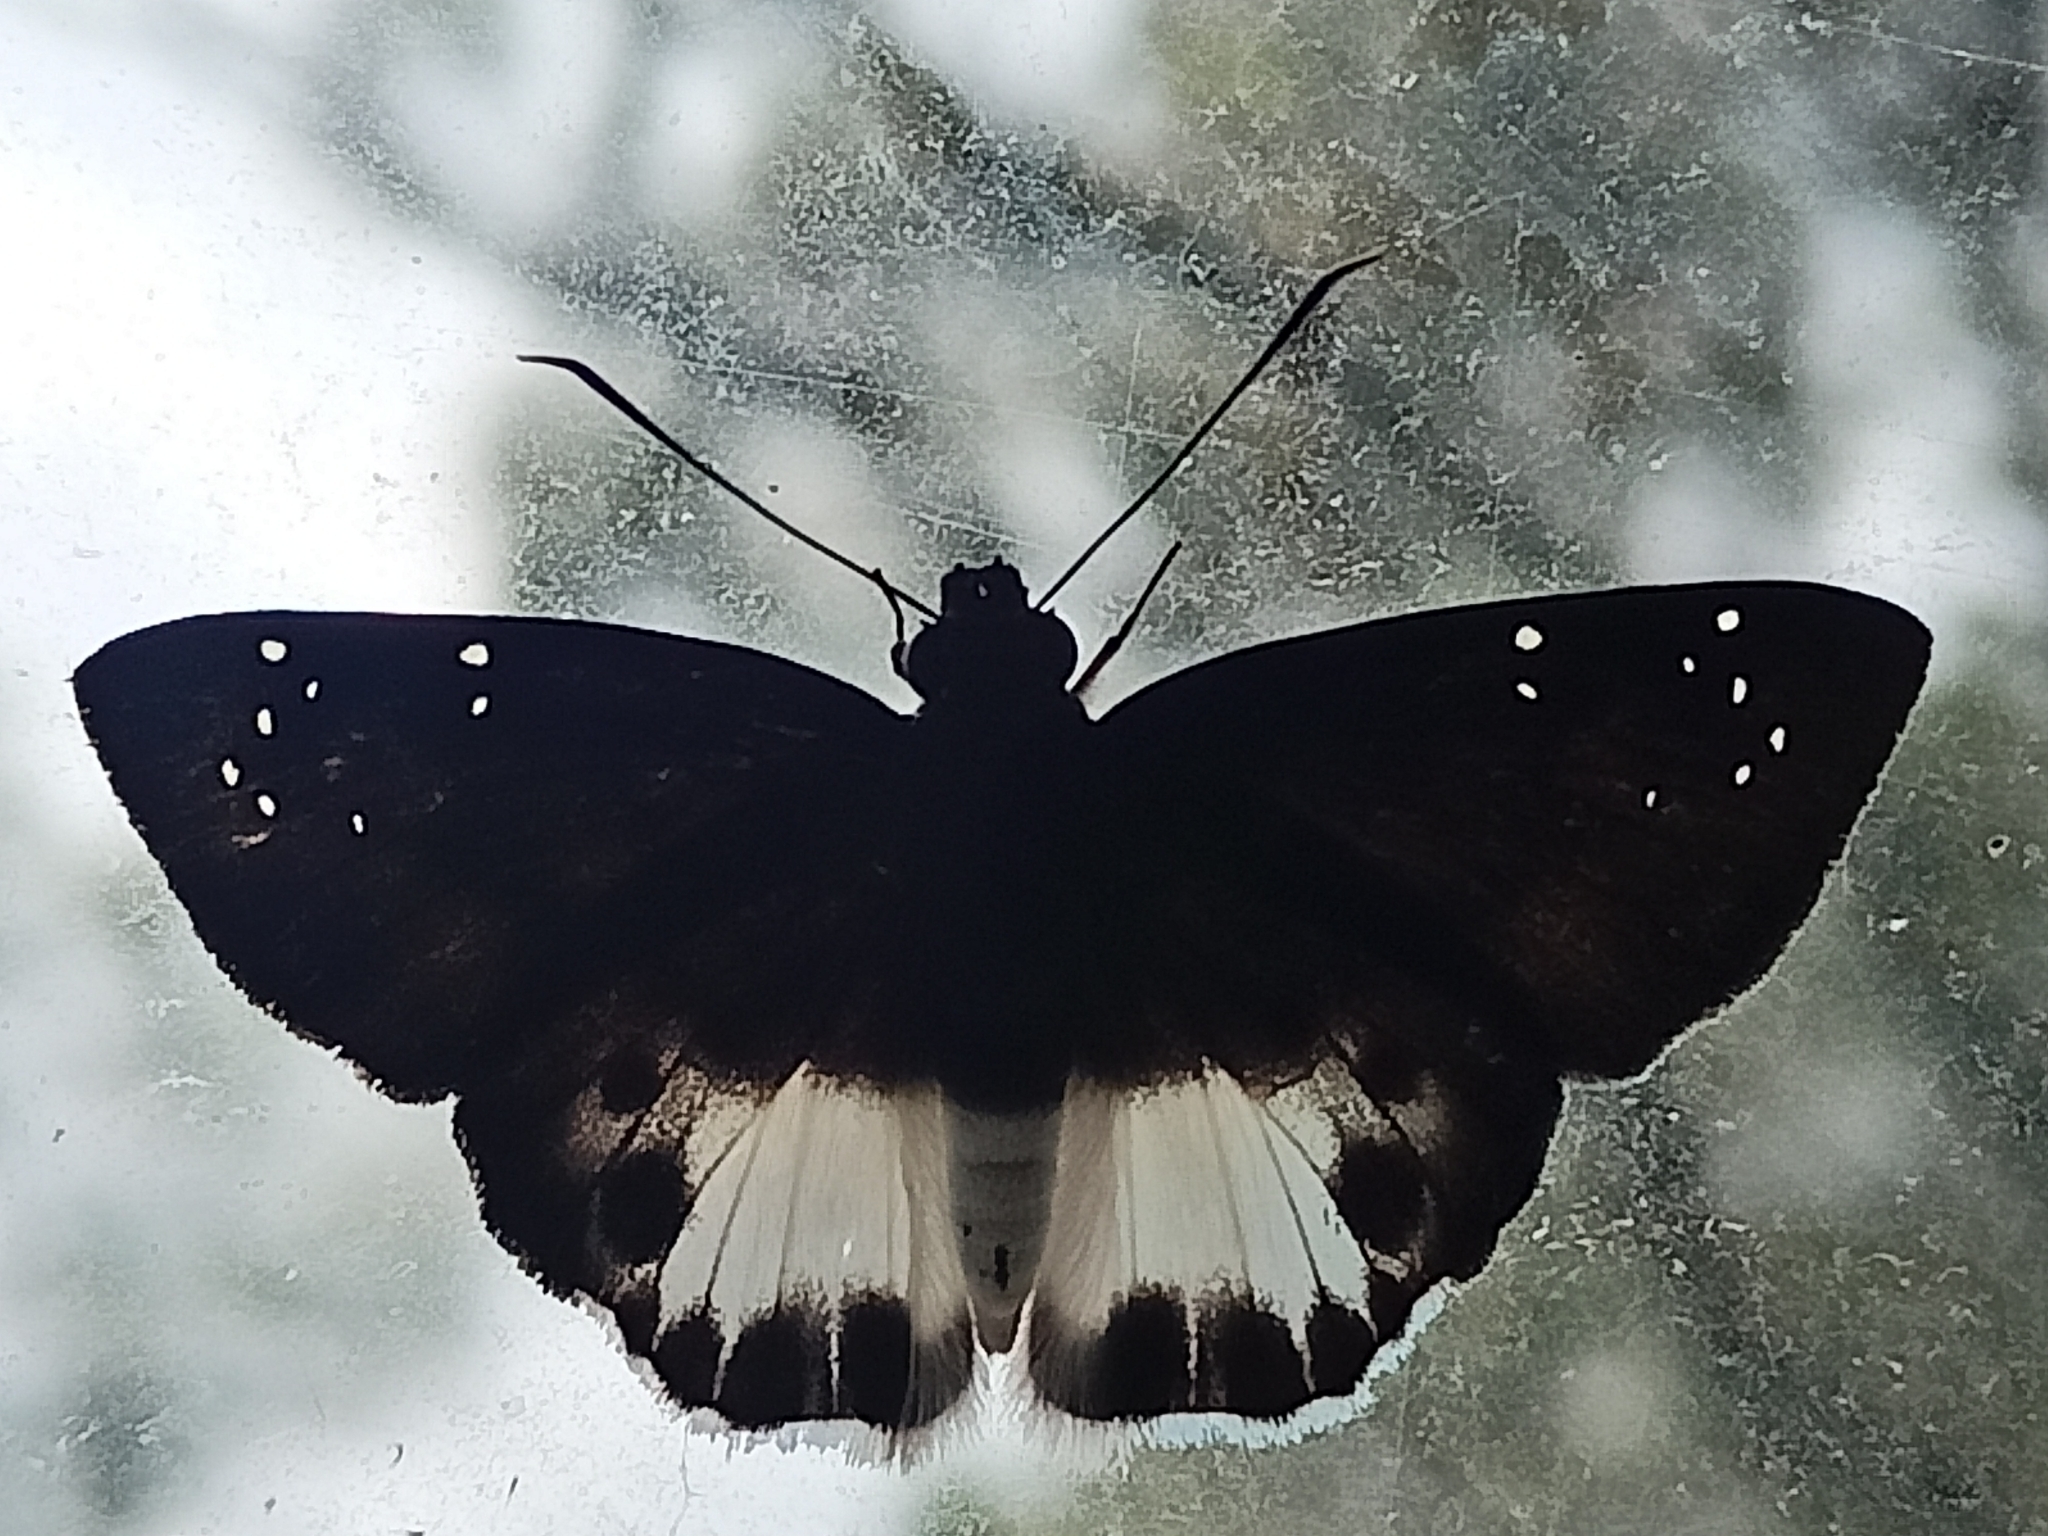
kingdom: Animalia
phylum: Arthropoda
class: Insecta
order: Lepidoptera
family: Hesperiidae
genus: Tagiades
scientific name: Tagiades litigiosa
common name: Water snow flat
